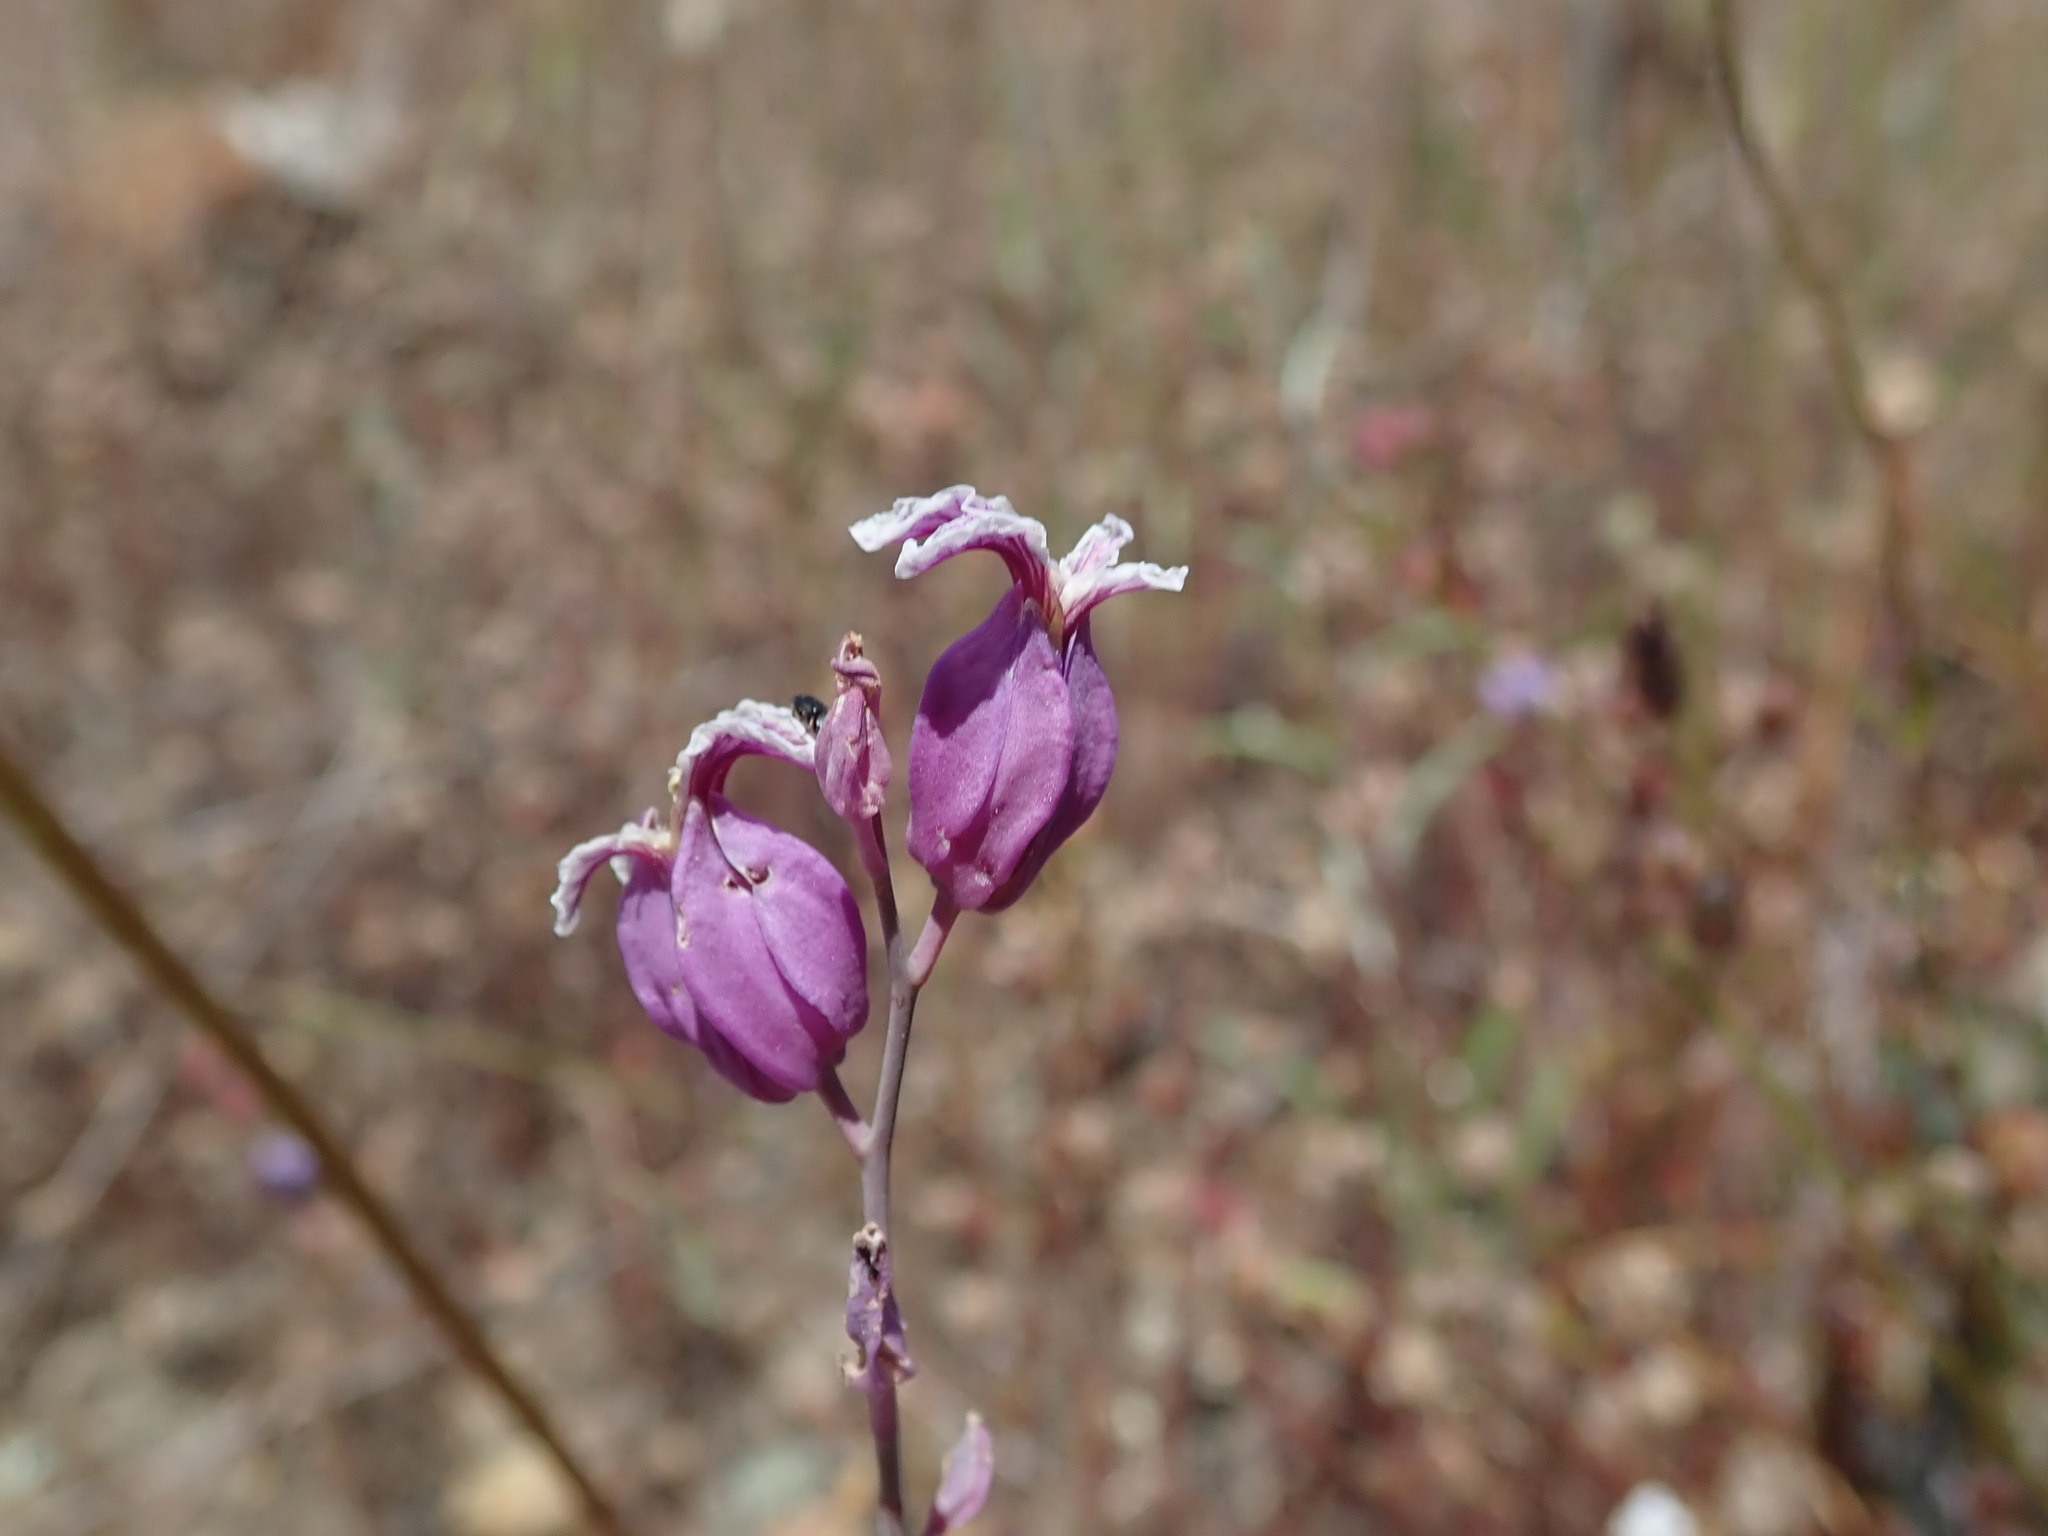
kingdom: Plantae
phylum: Tracheophyta
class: Magnoliopsida
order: Brassicales
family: Brassicaceae
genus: Streptanthus
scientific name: Streptanthus glandulosus
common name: Jewel-flower
